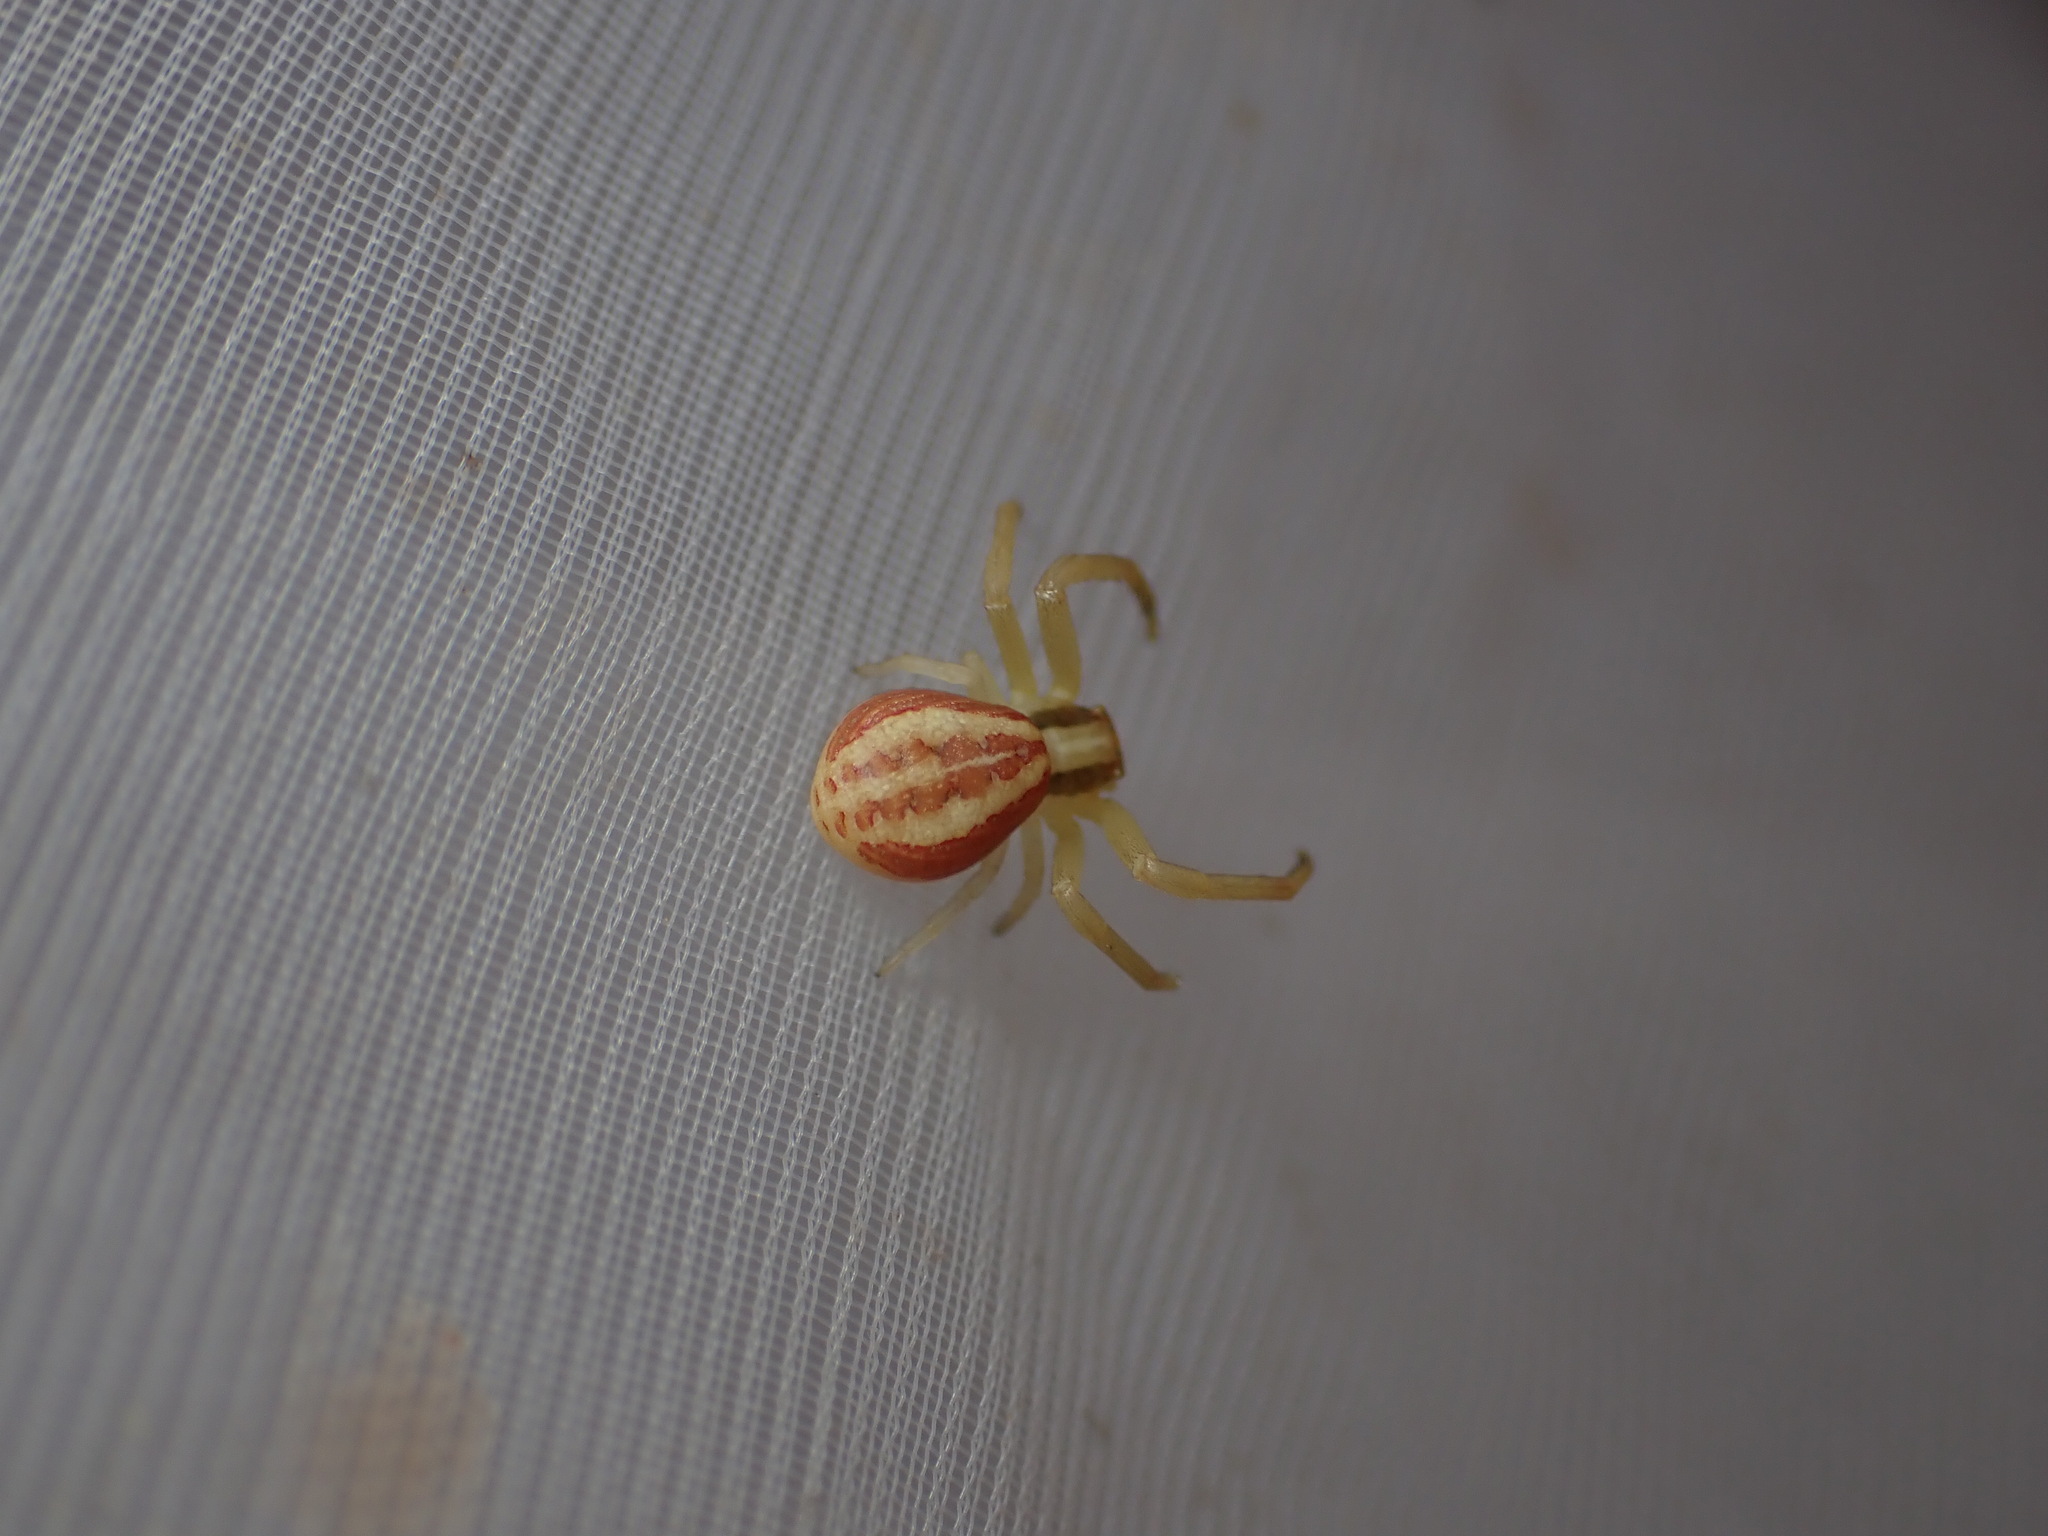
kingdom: Animalia
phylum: Arthropoda
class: Arachnida
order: Araneae
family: Thomisidae
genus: Runcinia
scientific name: Runcinia grammica
